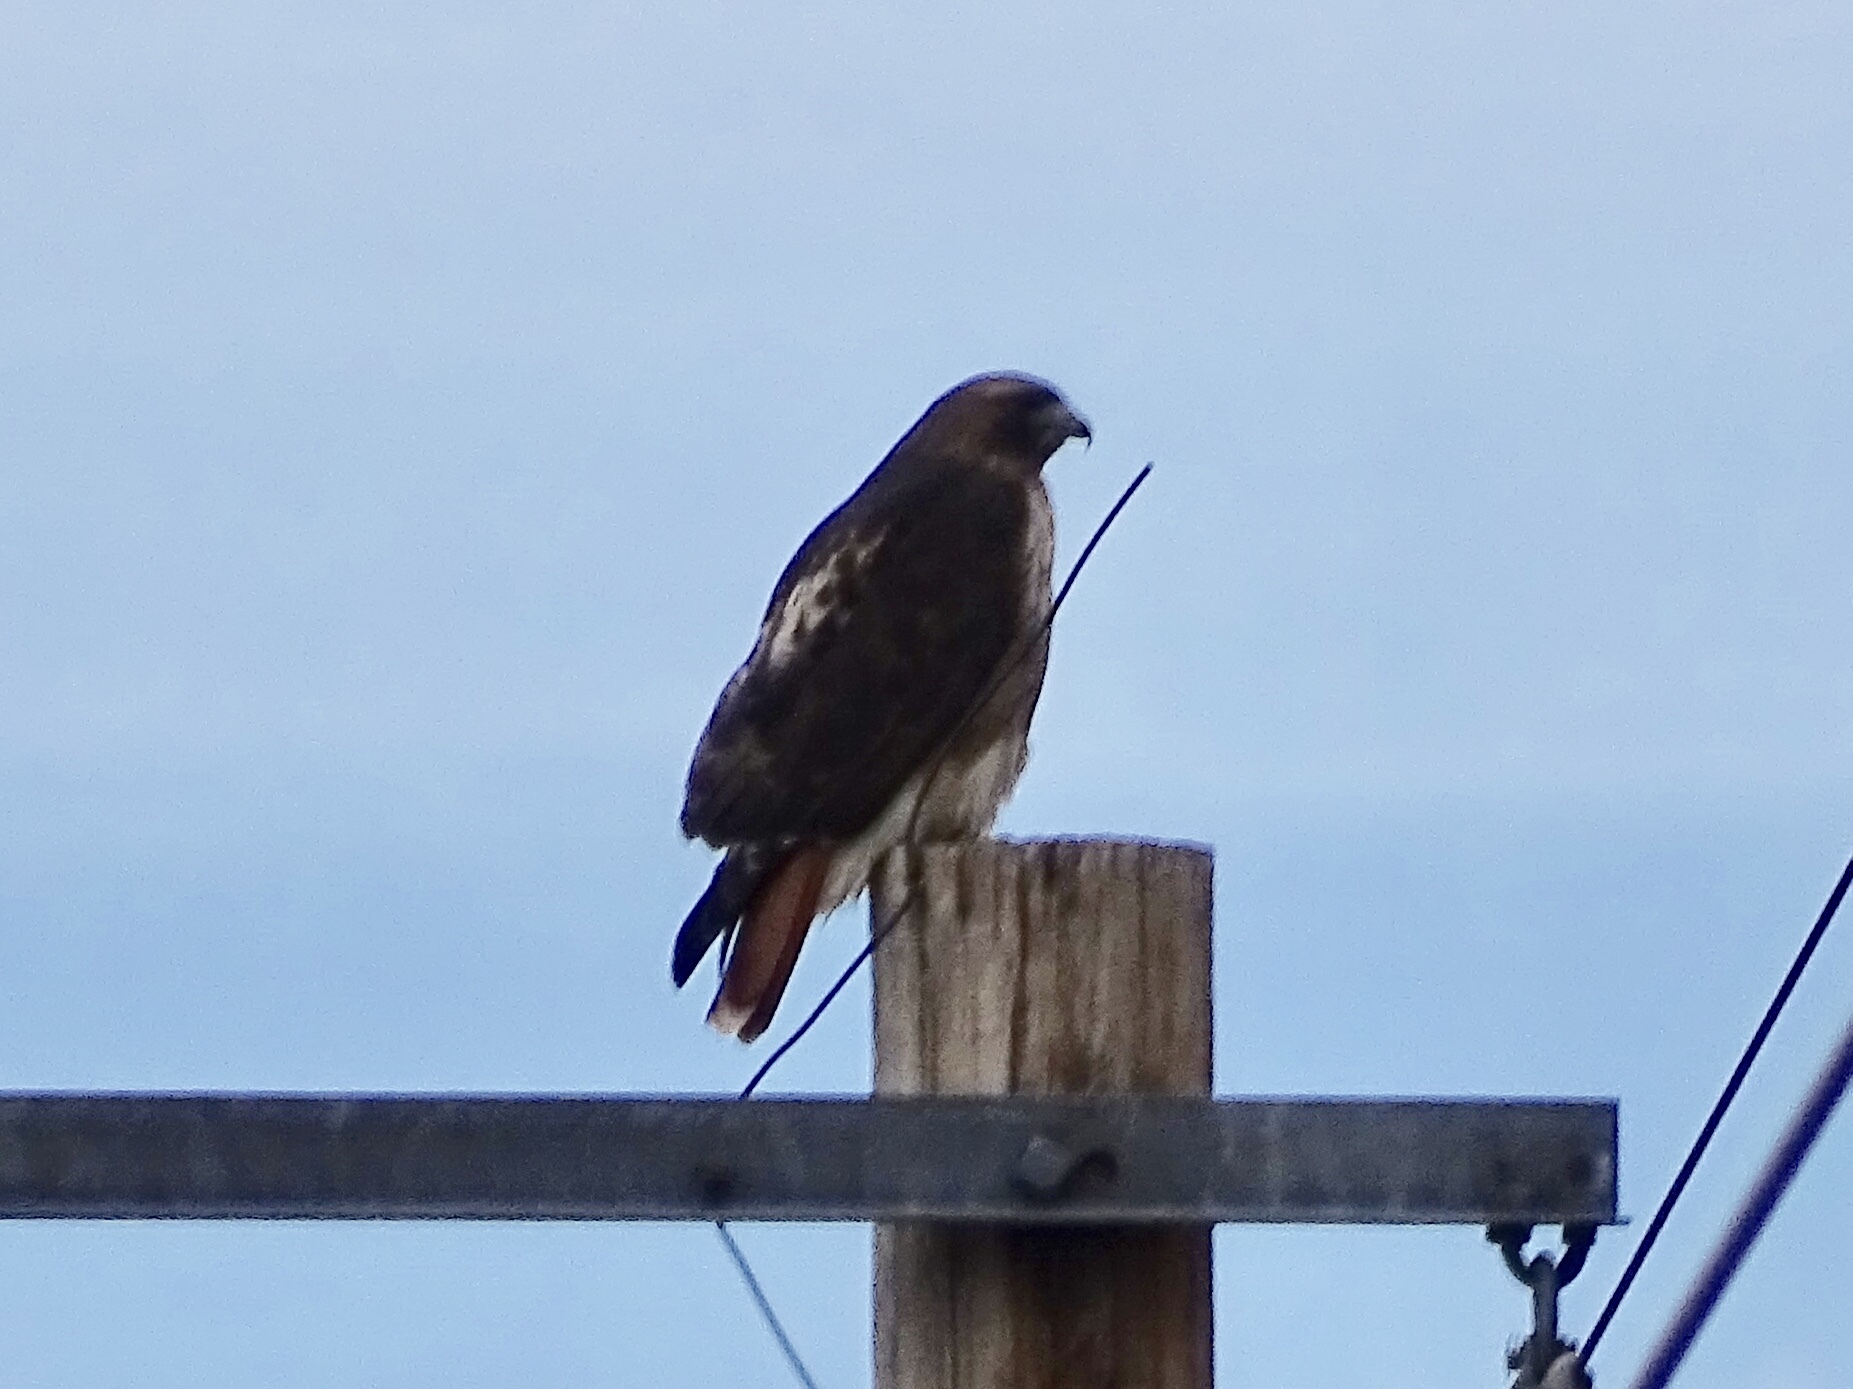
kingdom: Animalia
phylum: Chordata
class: Aves
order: Accipitriformes
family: Accipitridae
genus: Buteo
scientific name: Buteo jamaicensis
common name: Red-tailed hawk
